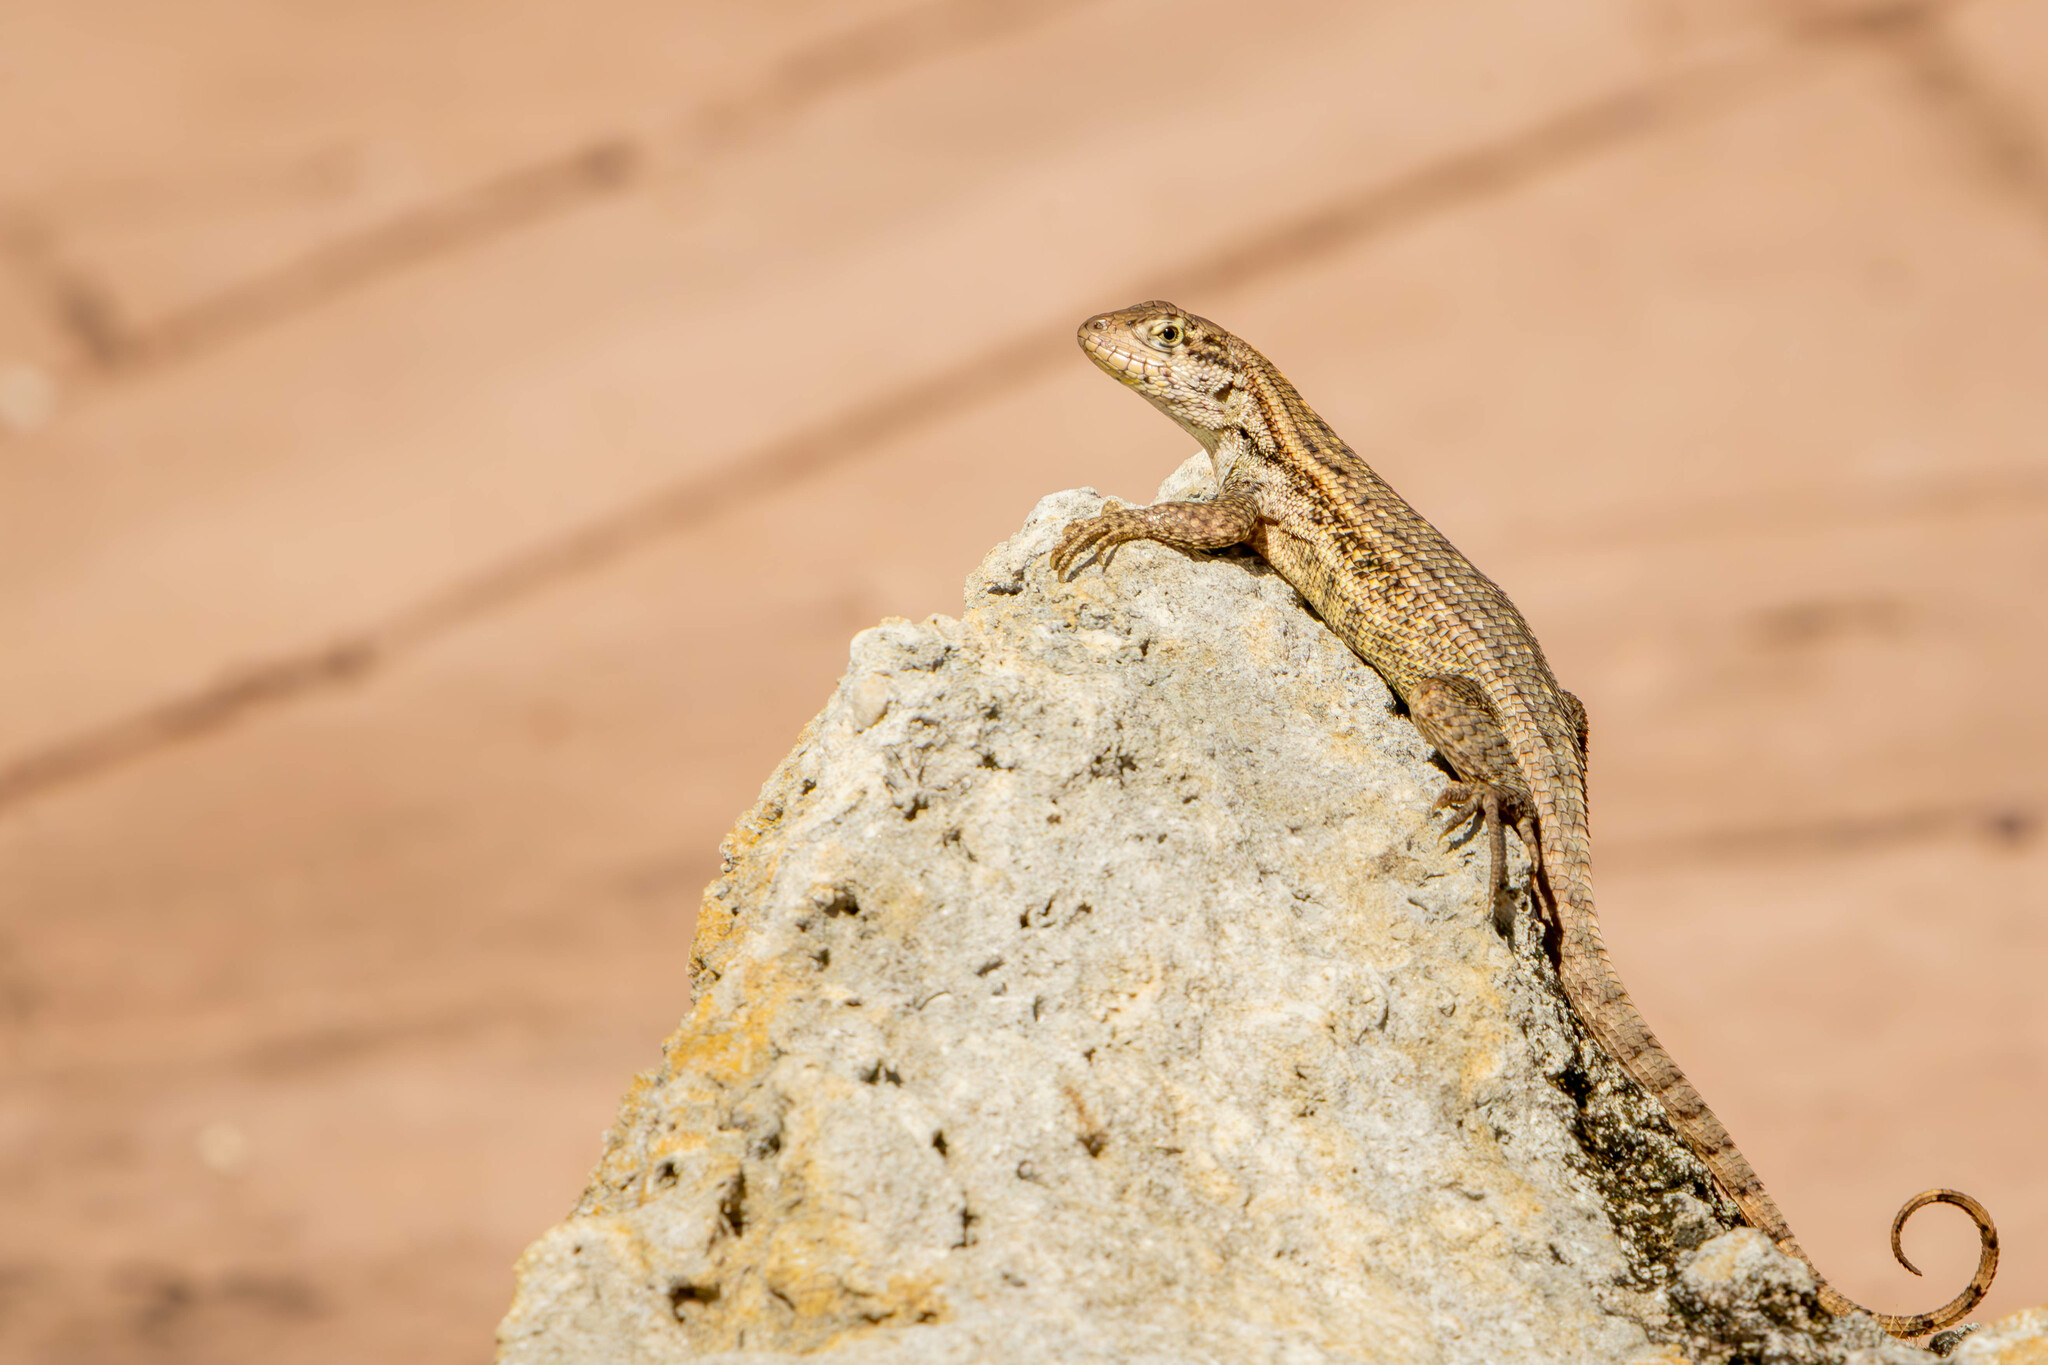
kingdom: Animalia
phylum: Chordata
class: Squamata
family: Leiocephalidae
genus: Leiocephalus
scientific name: Leiocephalus carinatus
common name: Northern curly-tailed lizard
